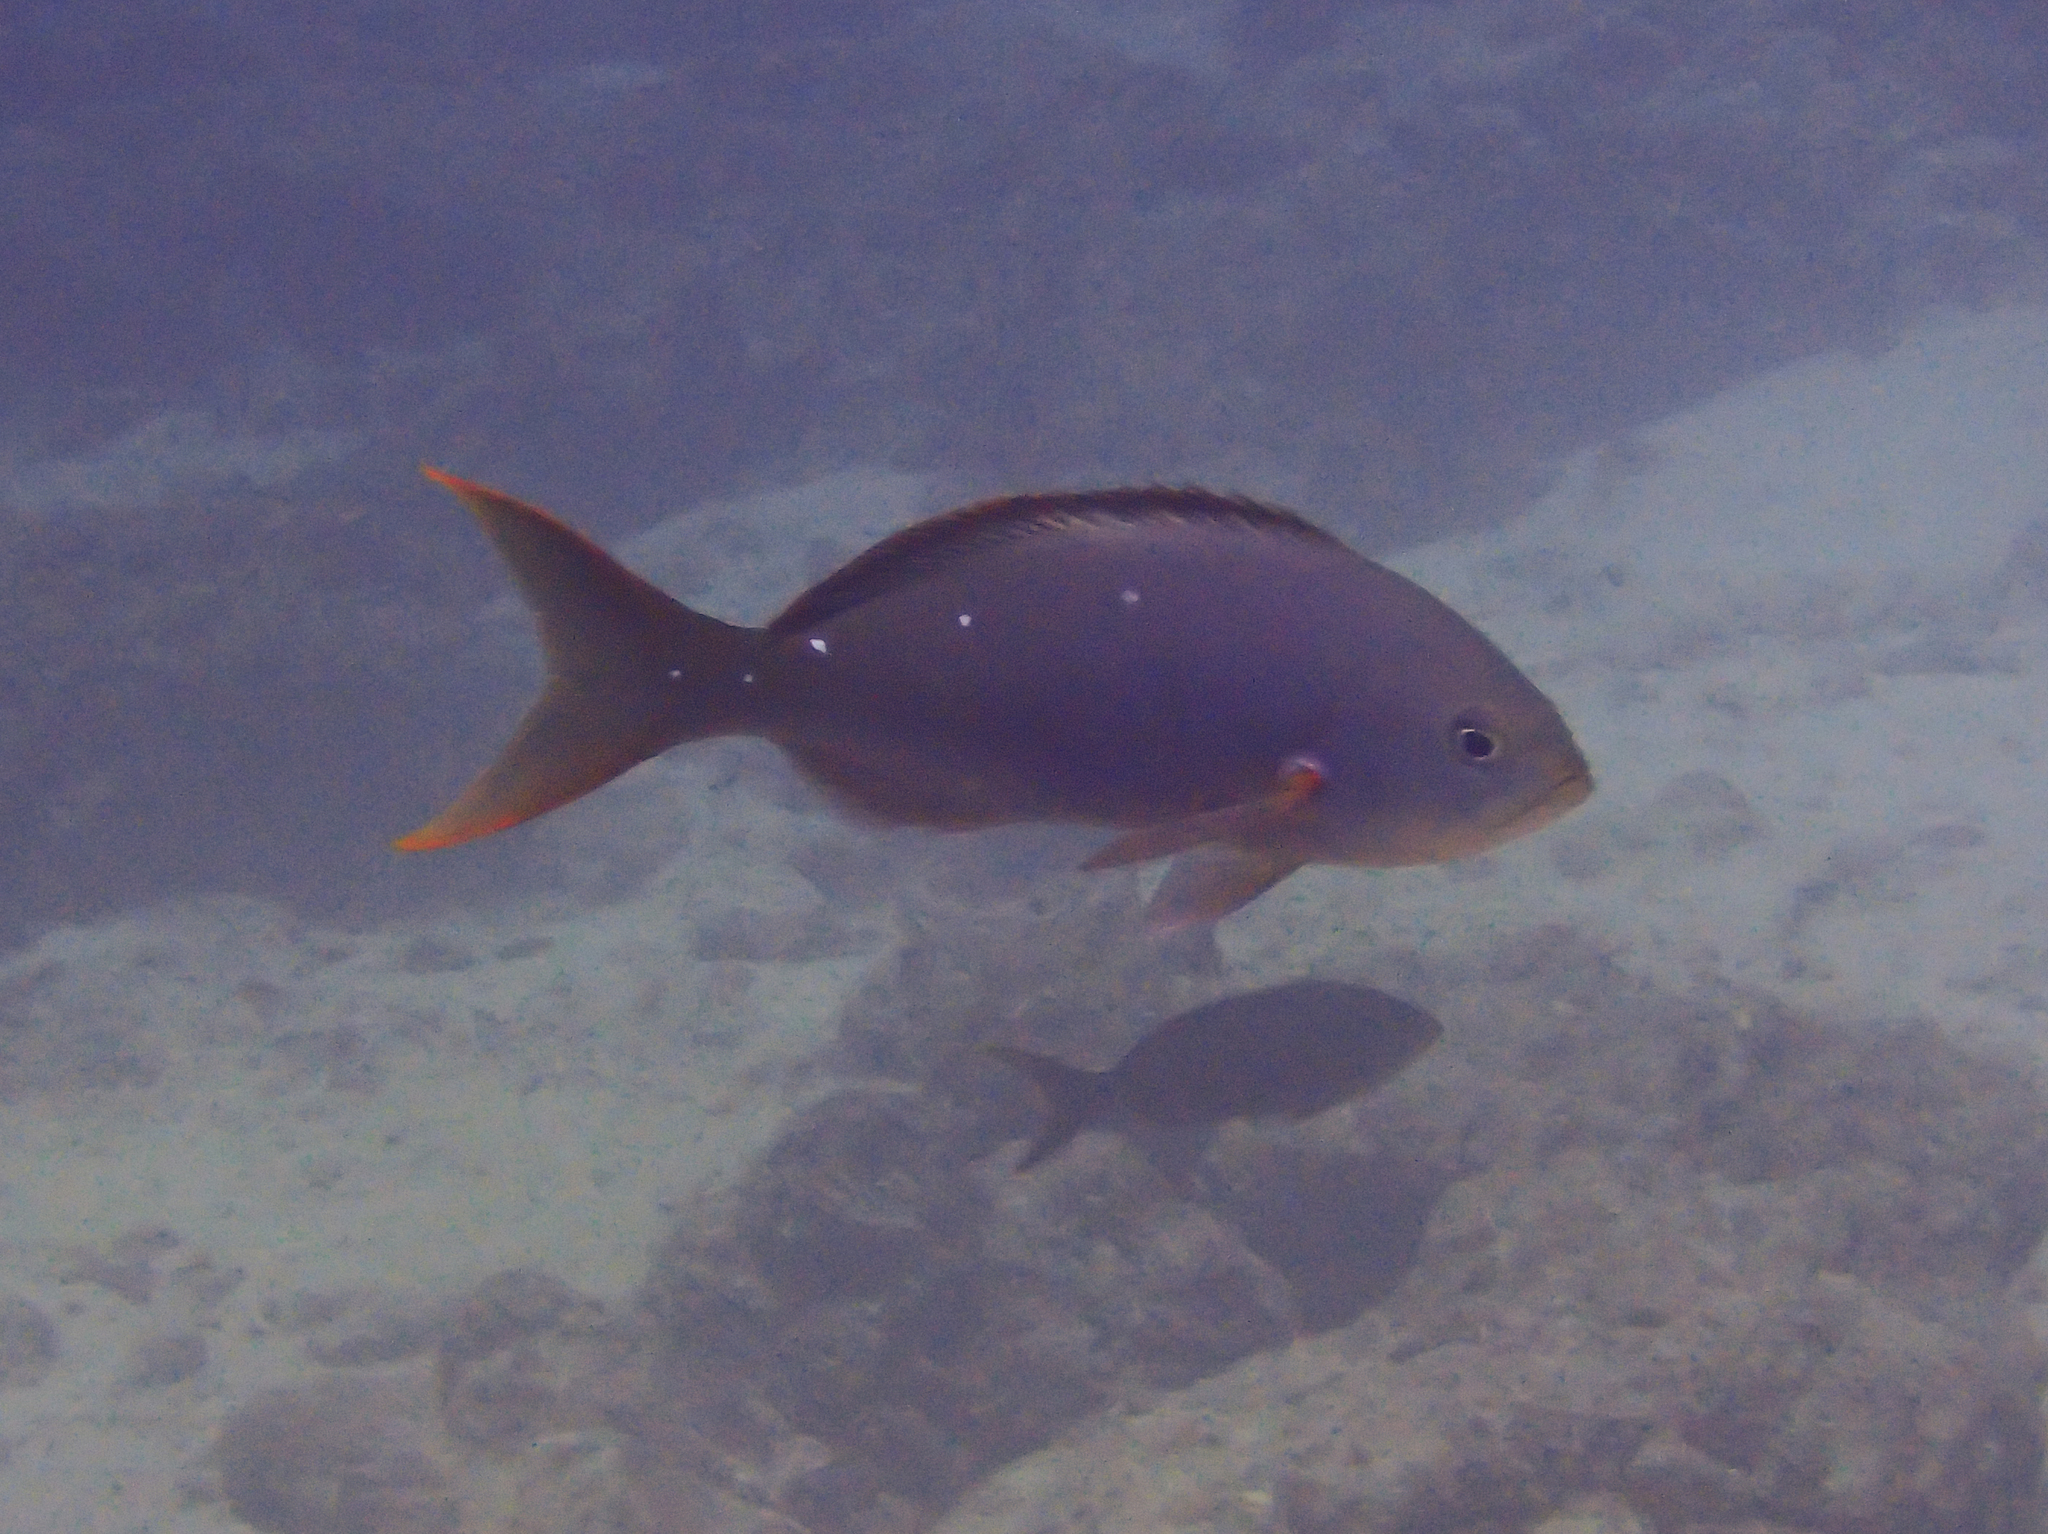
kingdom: Animalia
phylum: Chordata
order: Perciformes
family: Serranidae
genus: Paranthias
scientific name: Paranthias colonus
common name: Pacific creole-fish
